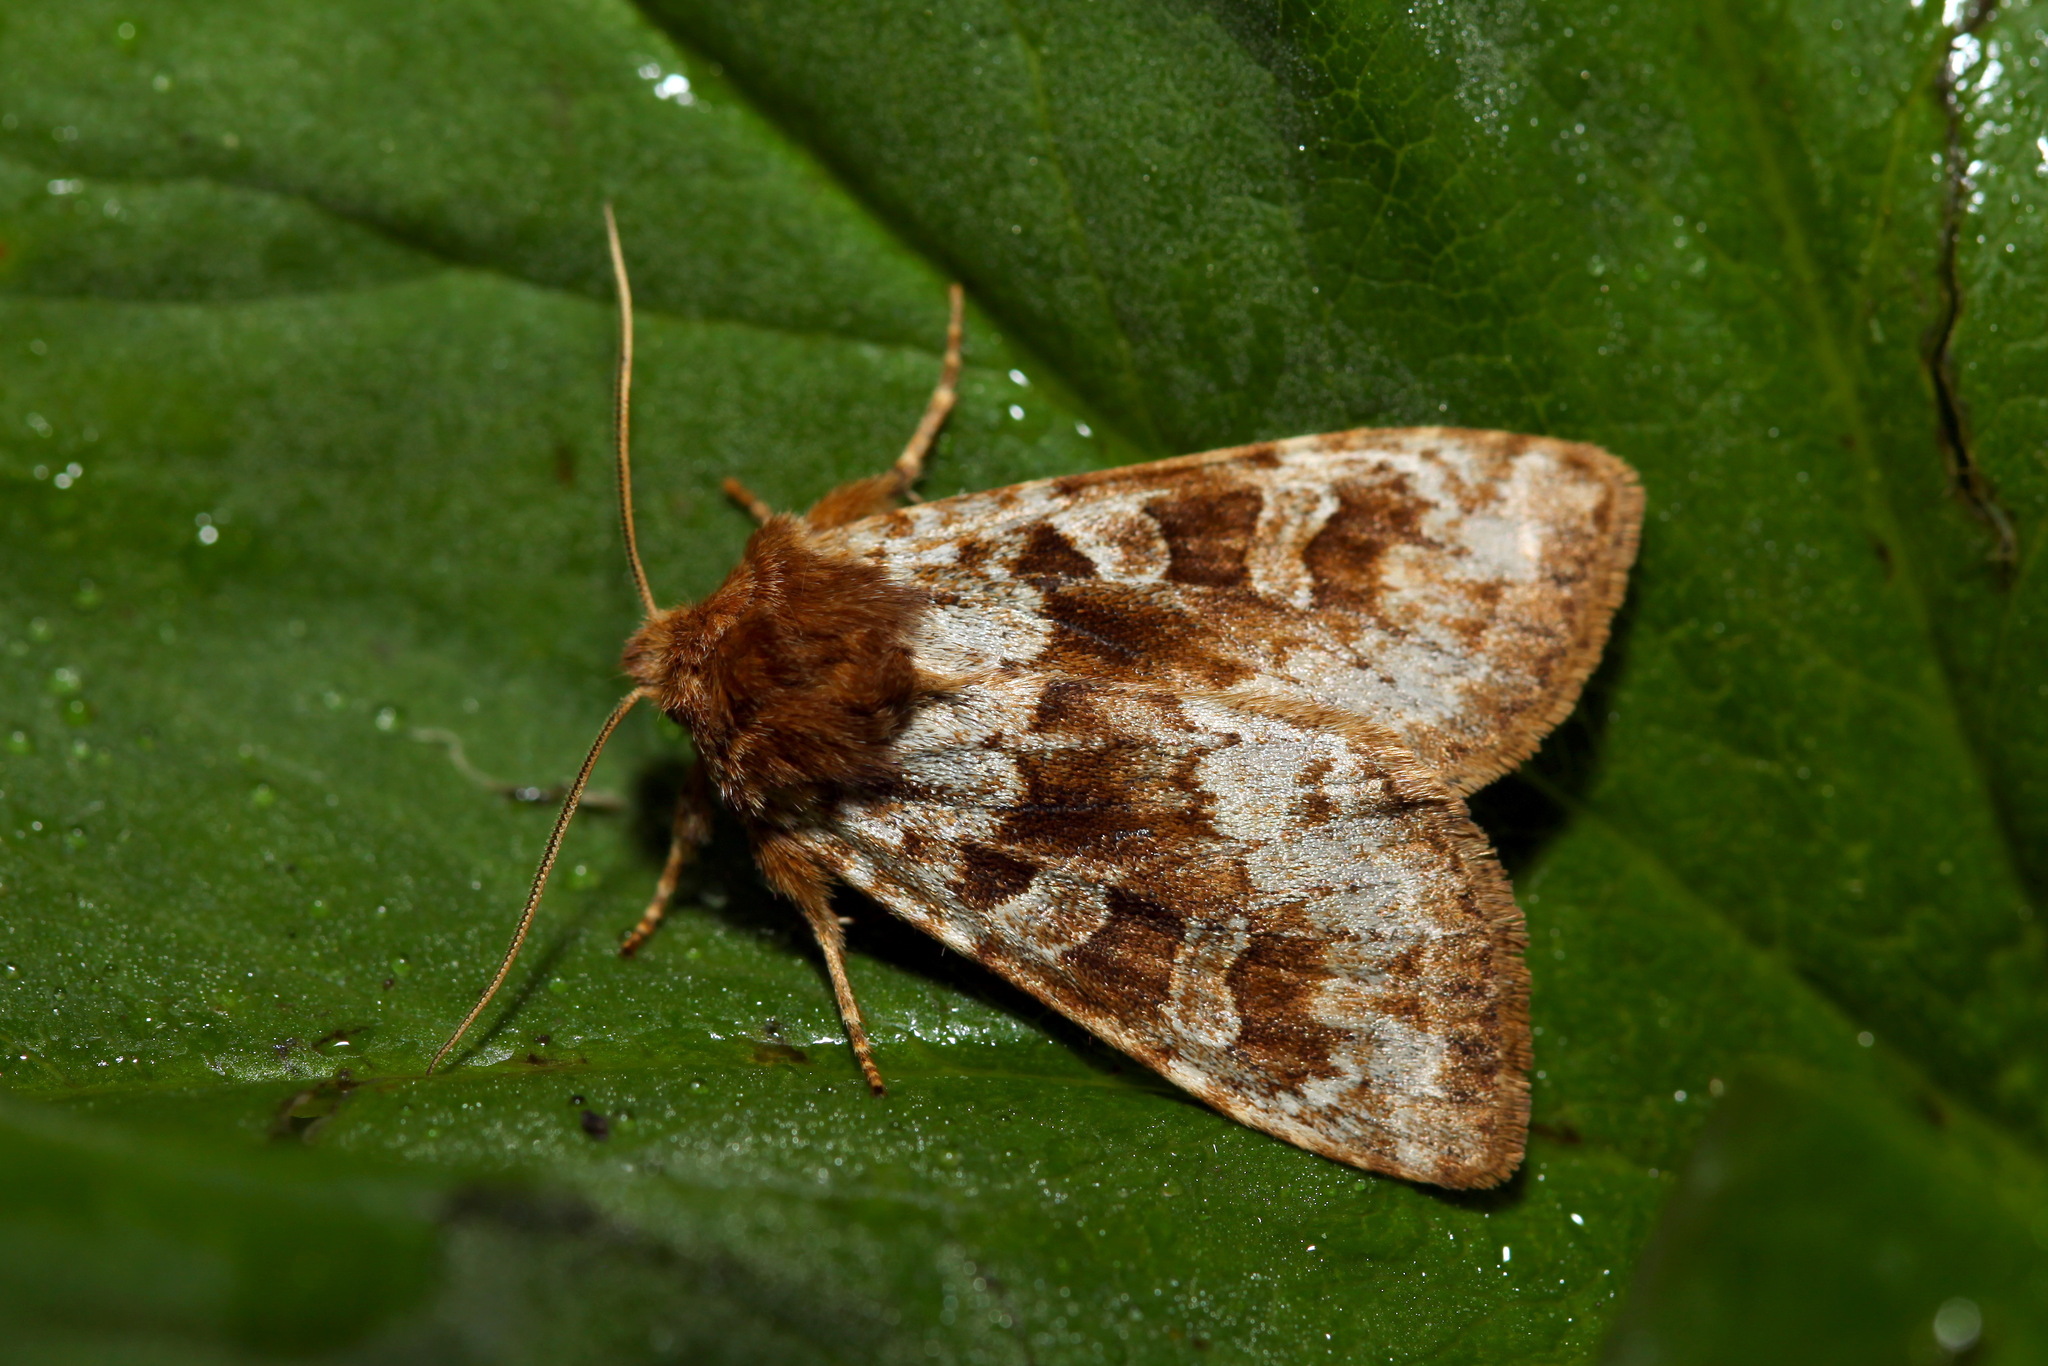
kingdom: Animalia
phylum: Arthropoda
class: Insecta
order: Lepidoptera
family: Noctuidae
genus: Xestia
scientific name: Xestia lorezi
